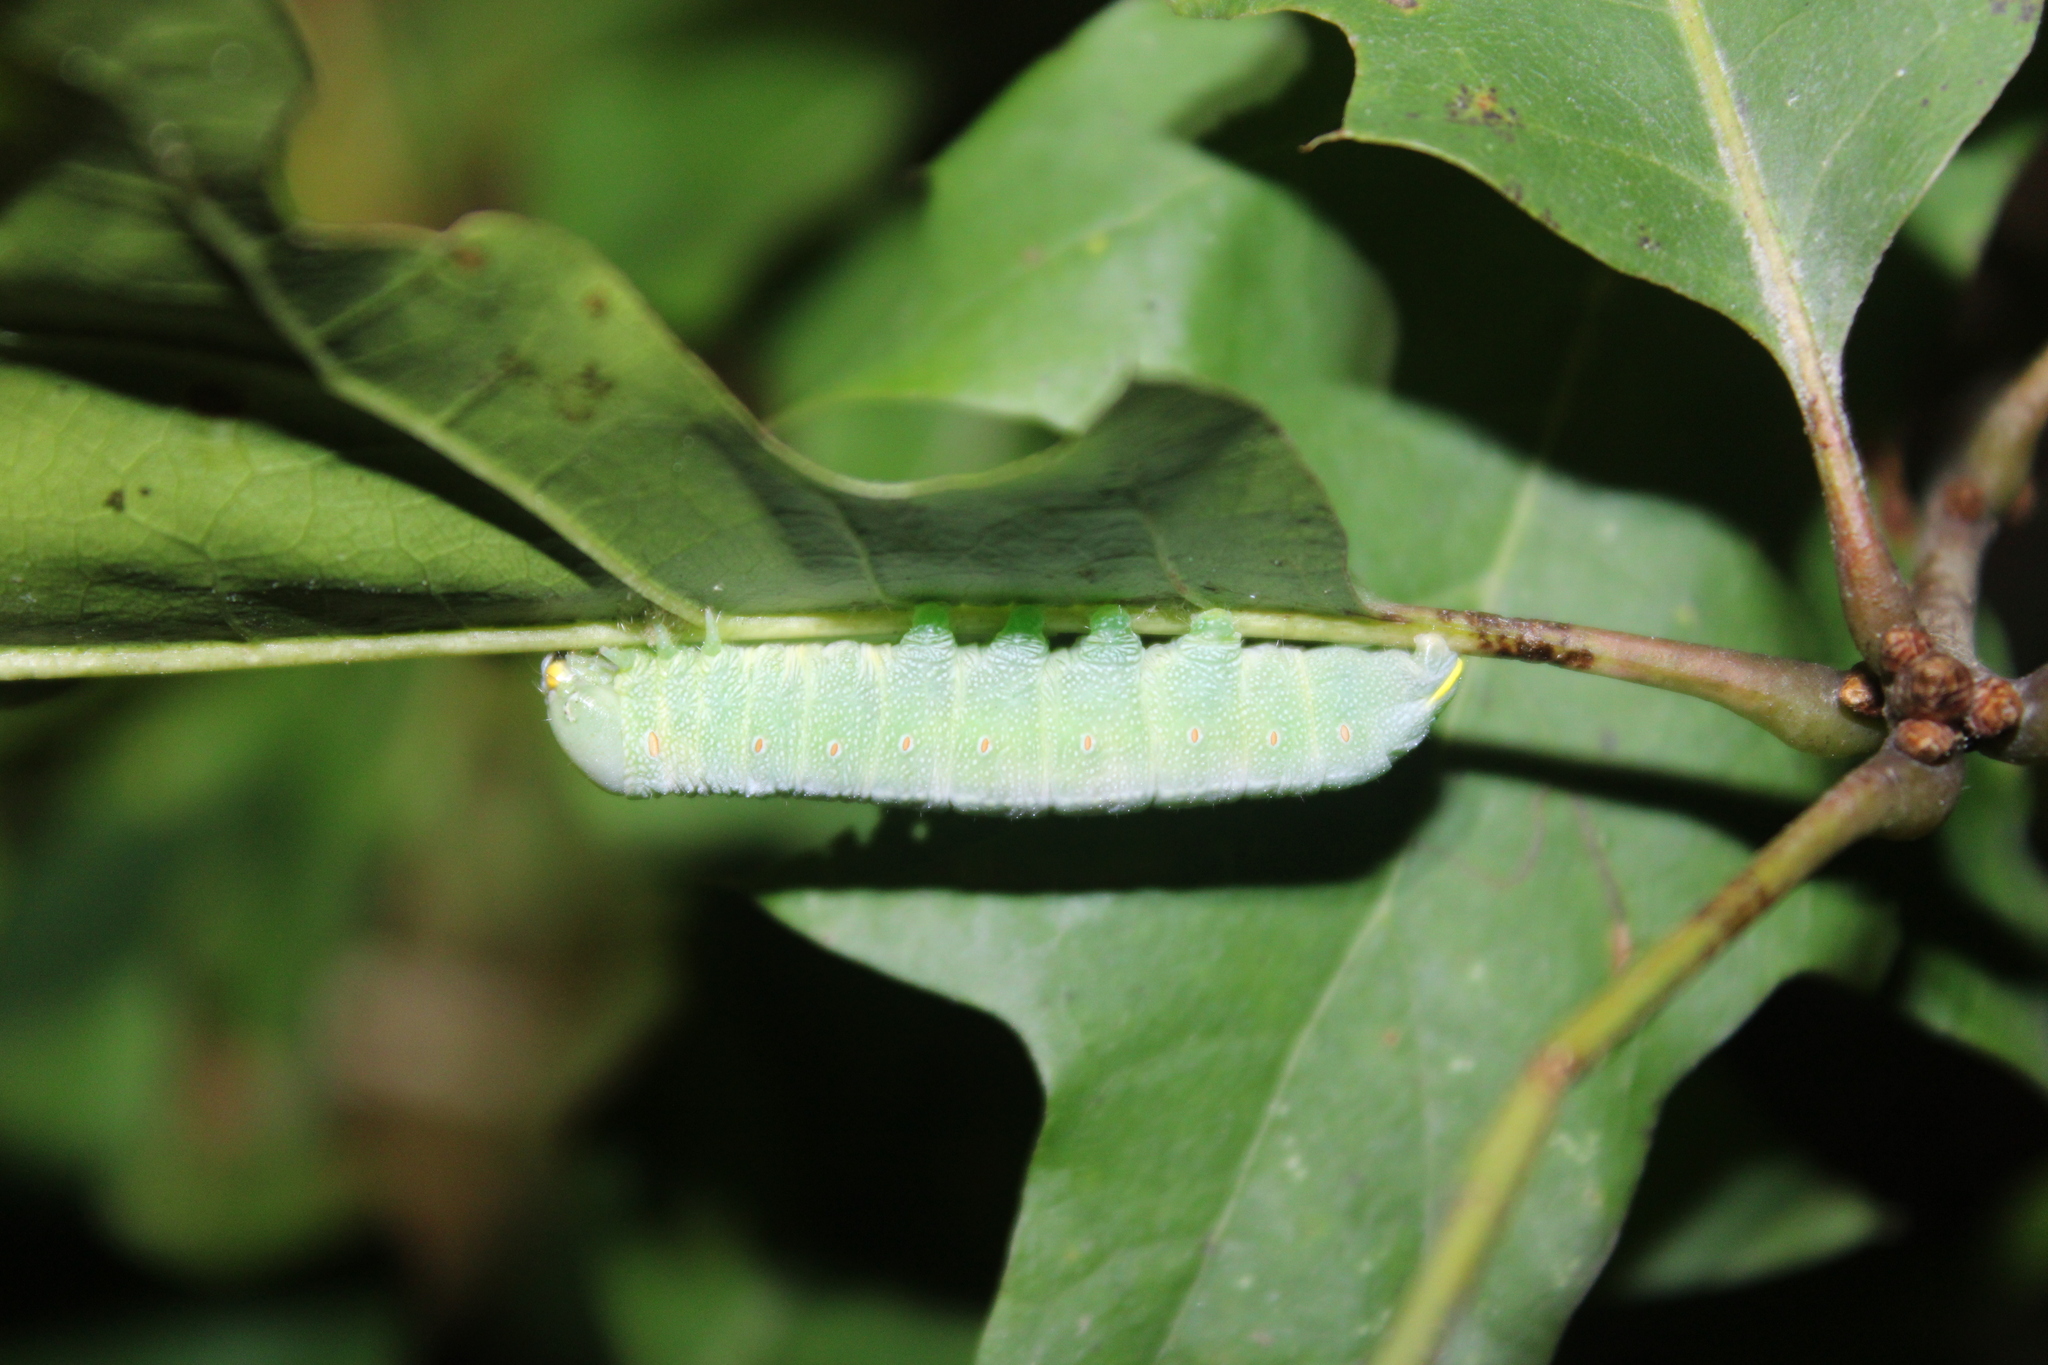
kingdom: Animalia
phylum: Arthropoda
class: Insecta
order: Lepidoptera
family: Notodontidae
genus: Nadata
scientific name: Nadata gibbosa
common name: White-dotted prominent
